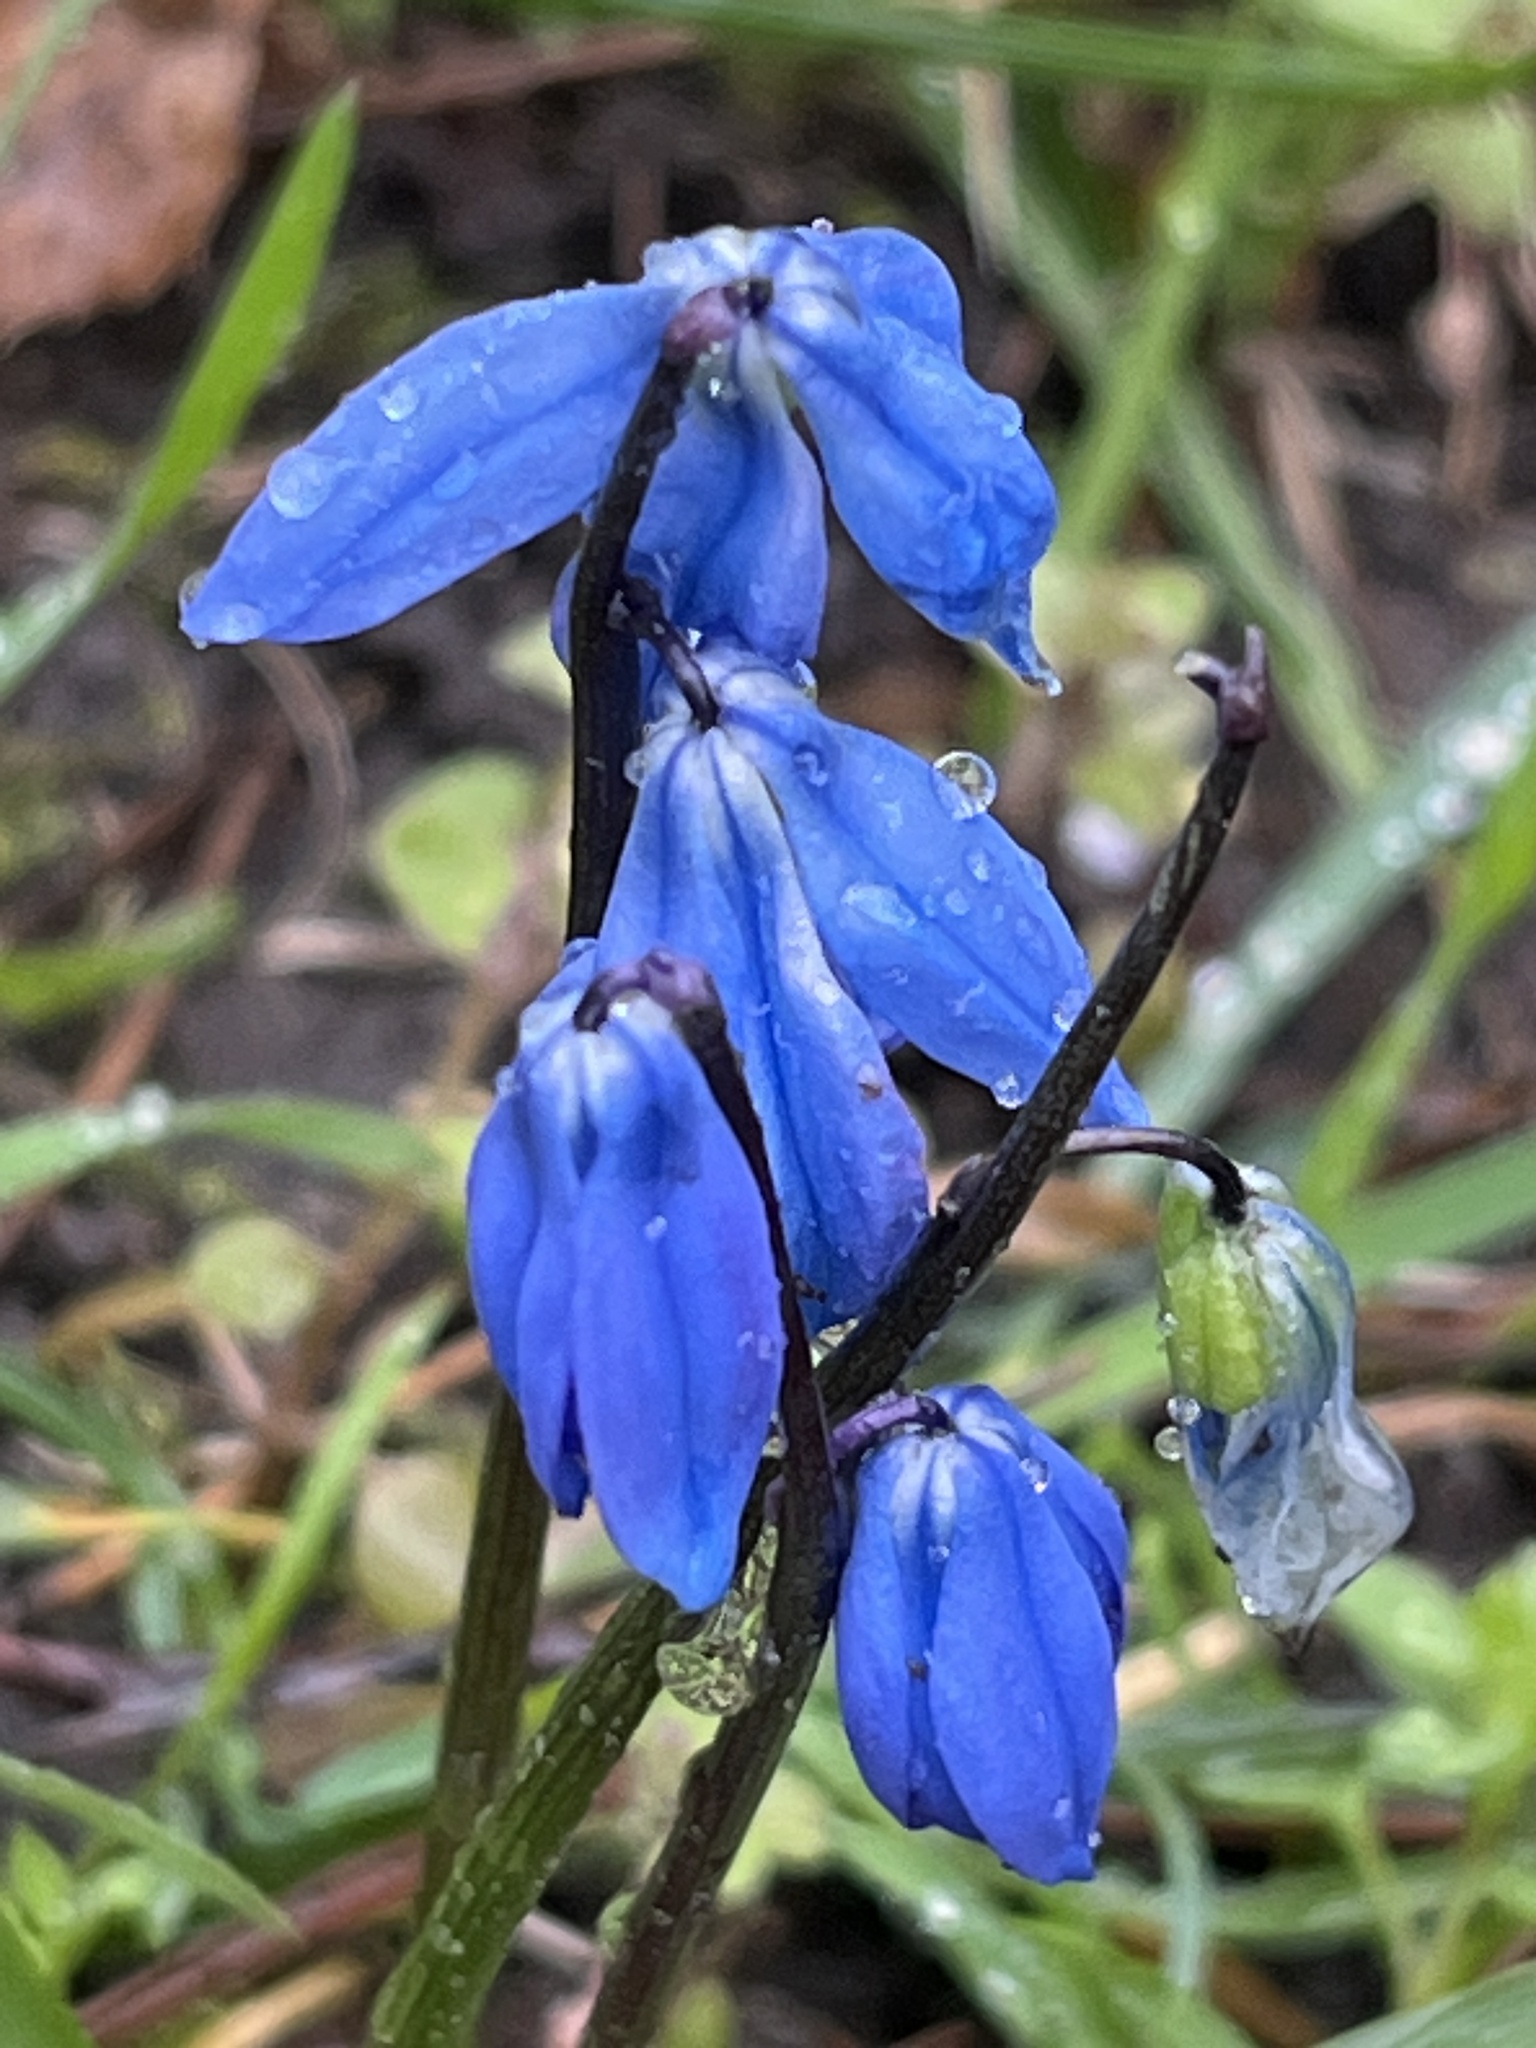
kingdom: Plantae
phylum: Tracheophyta
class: Liliopsida
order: Asparagales
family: Asparagaceae
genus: Scilla
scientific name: Scilla siberica
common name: Siberian squill
